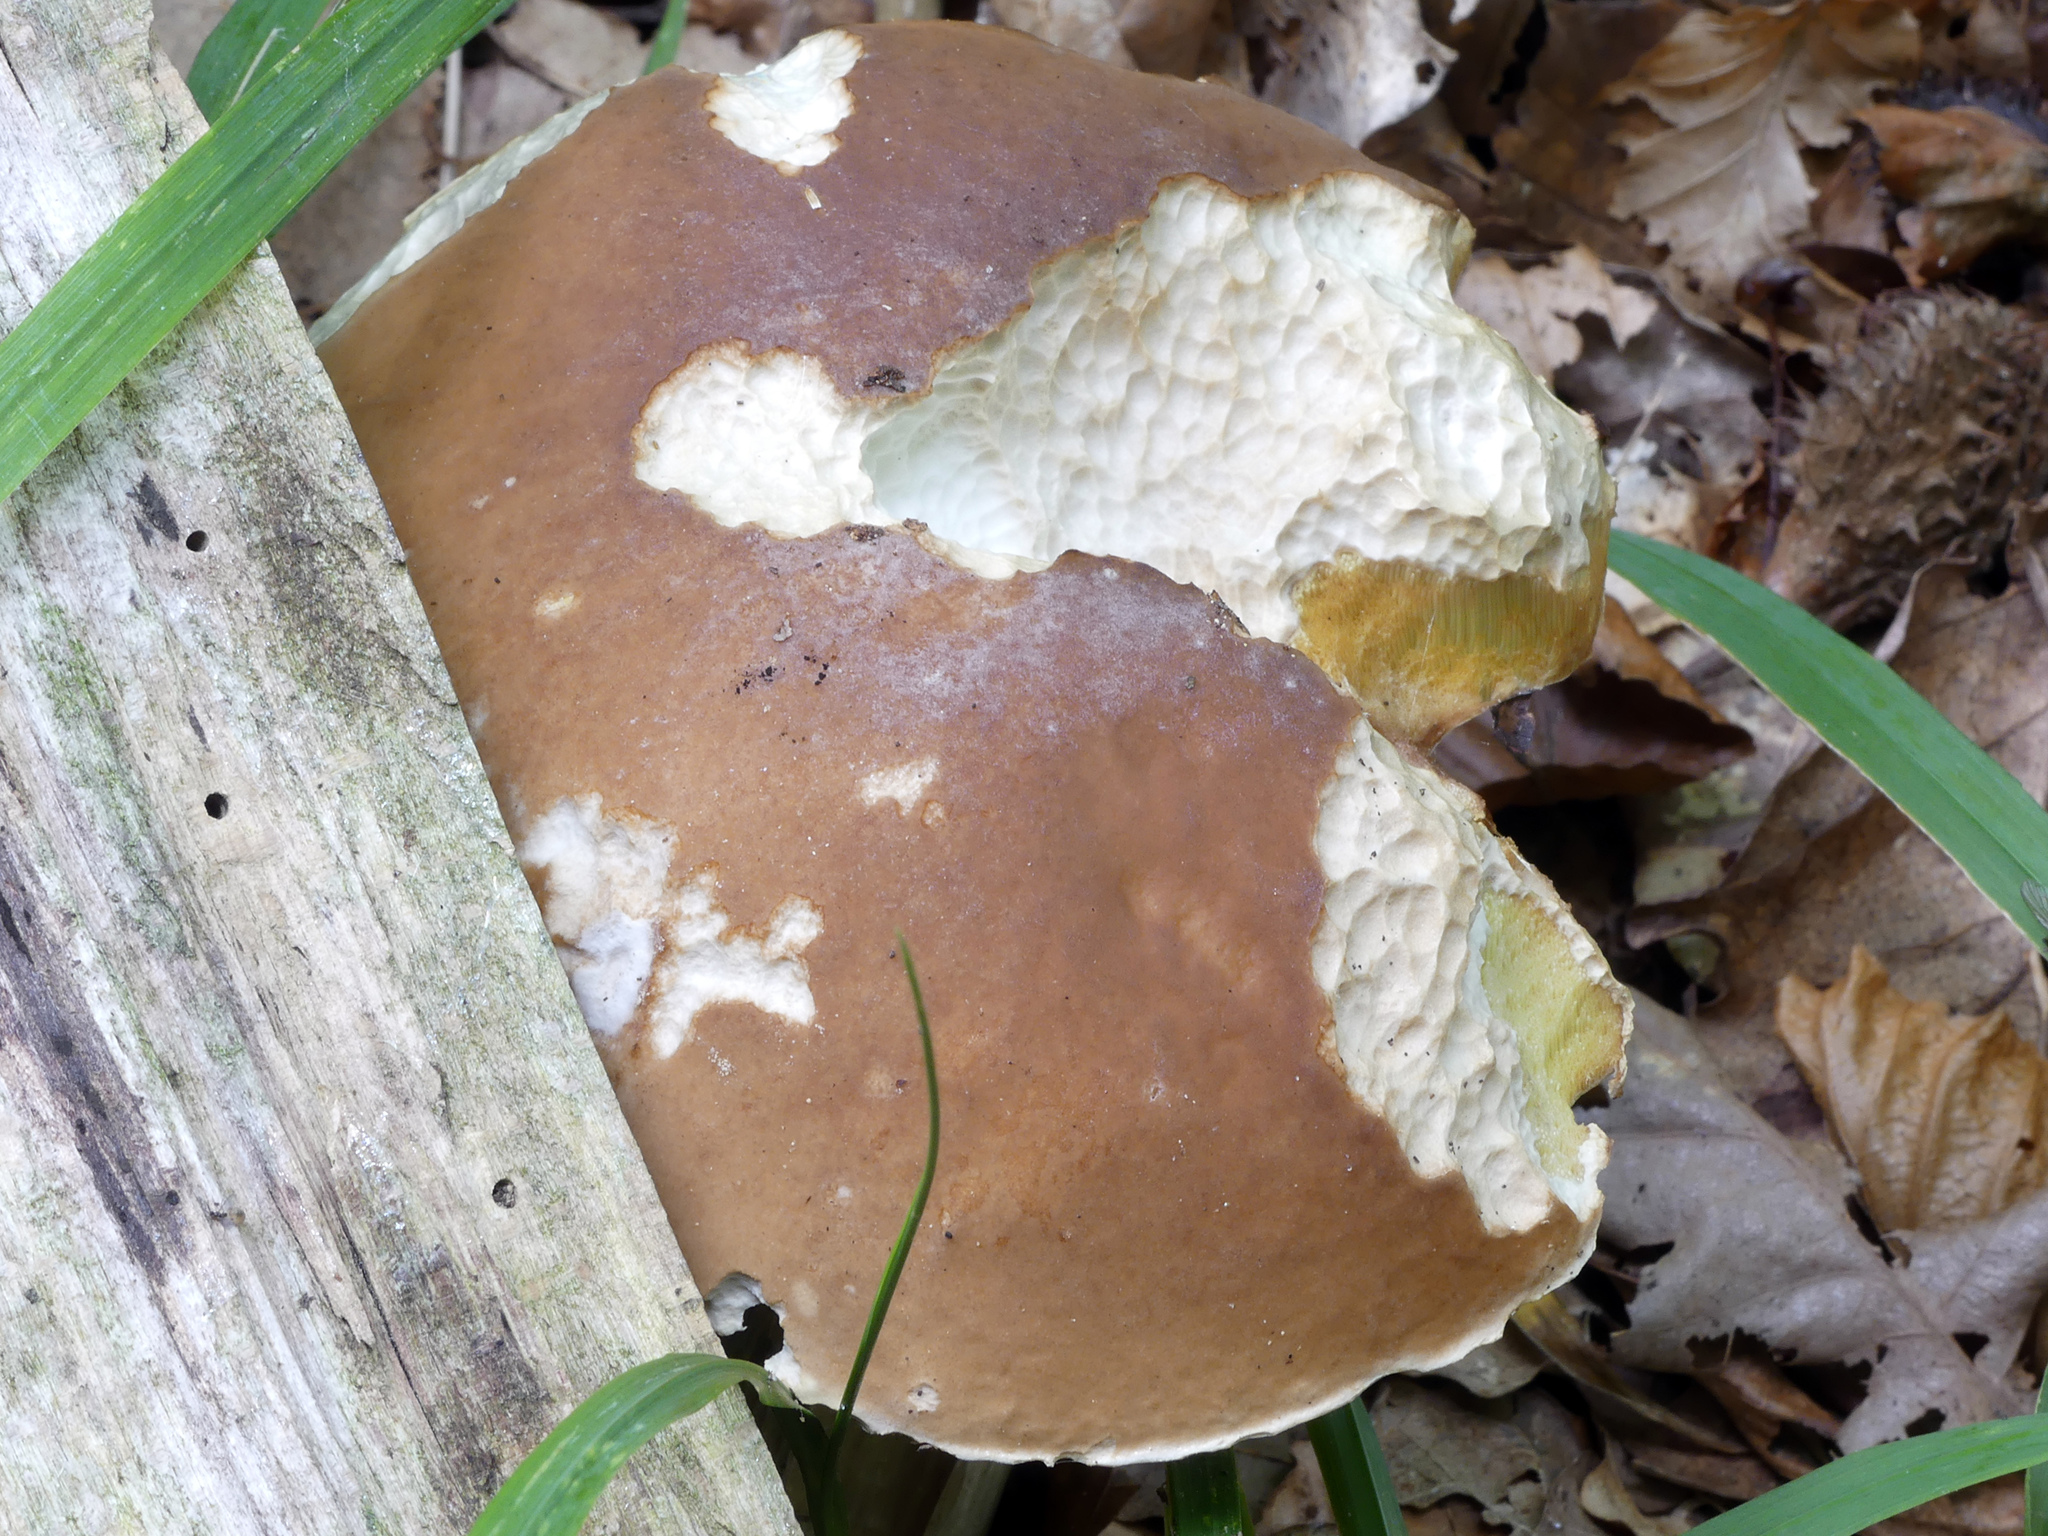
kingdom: Fungi
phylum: Basidiomycota
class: Agaricomycetes
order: Boletales
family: Boletaceae
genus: Boletus
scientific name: Boletus edulis
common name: Cep
